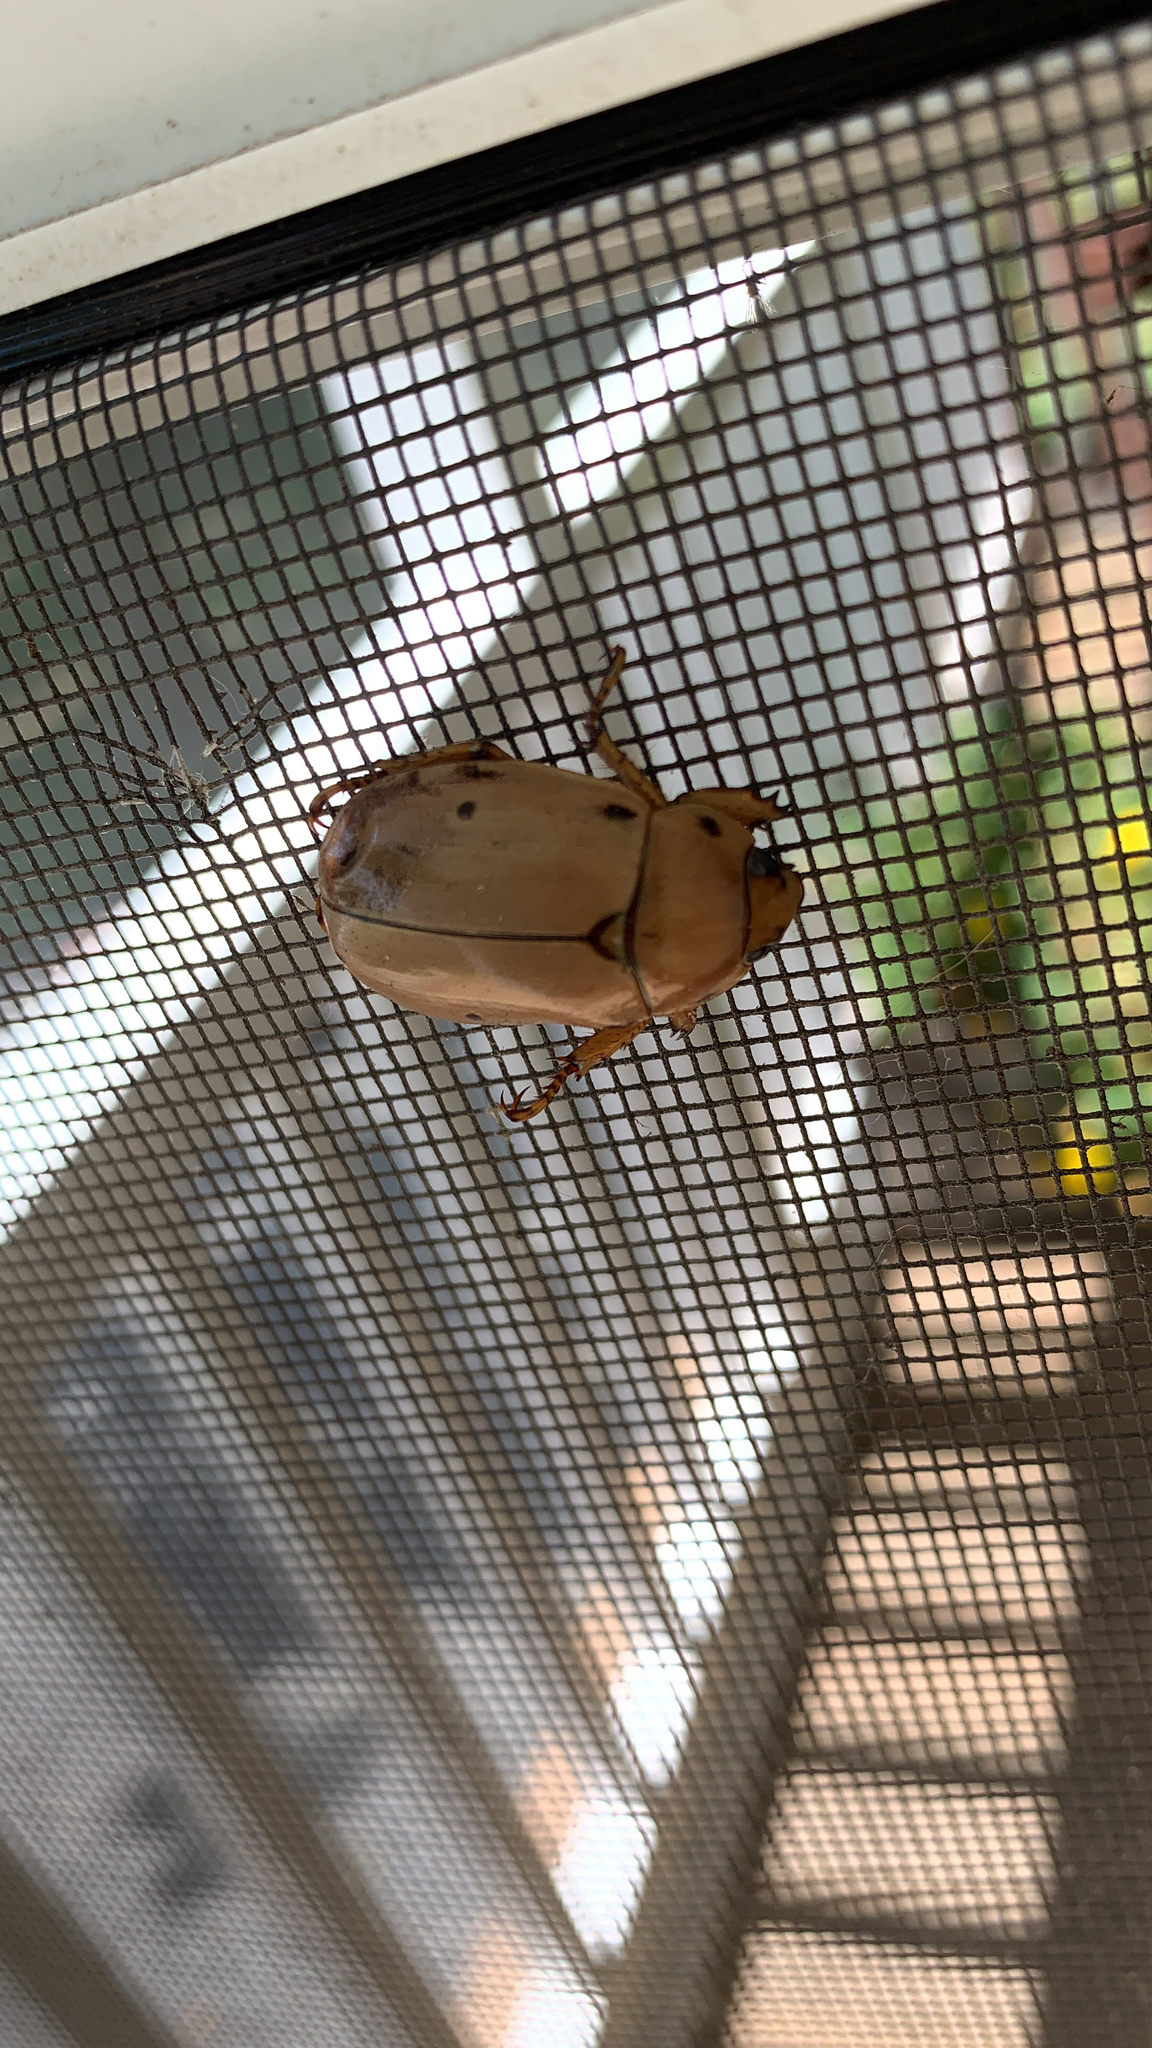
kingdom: Animalia
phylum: Arthropoda
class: Insecta
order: Coleoptera
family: Scarabaeidae
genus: Pelidnota
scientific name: Pelidnota punctata
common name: Grapevine beetle
